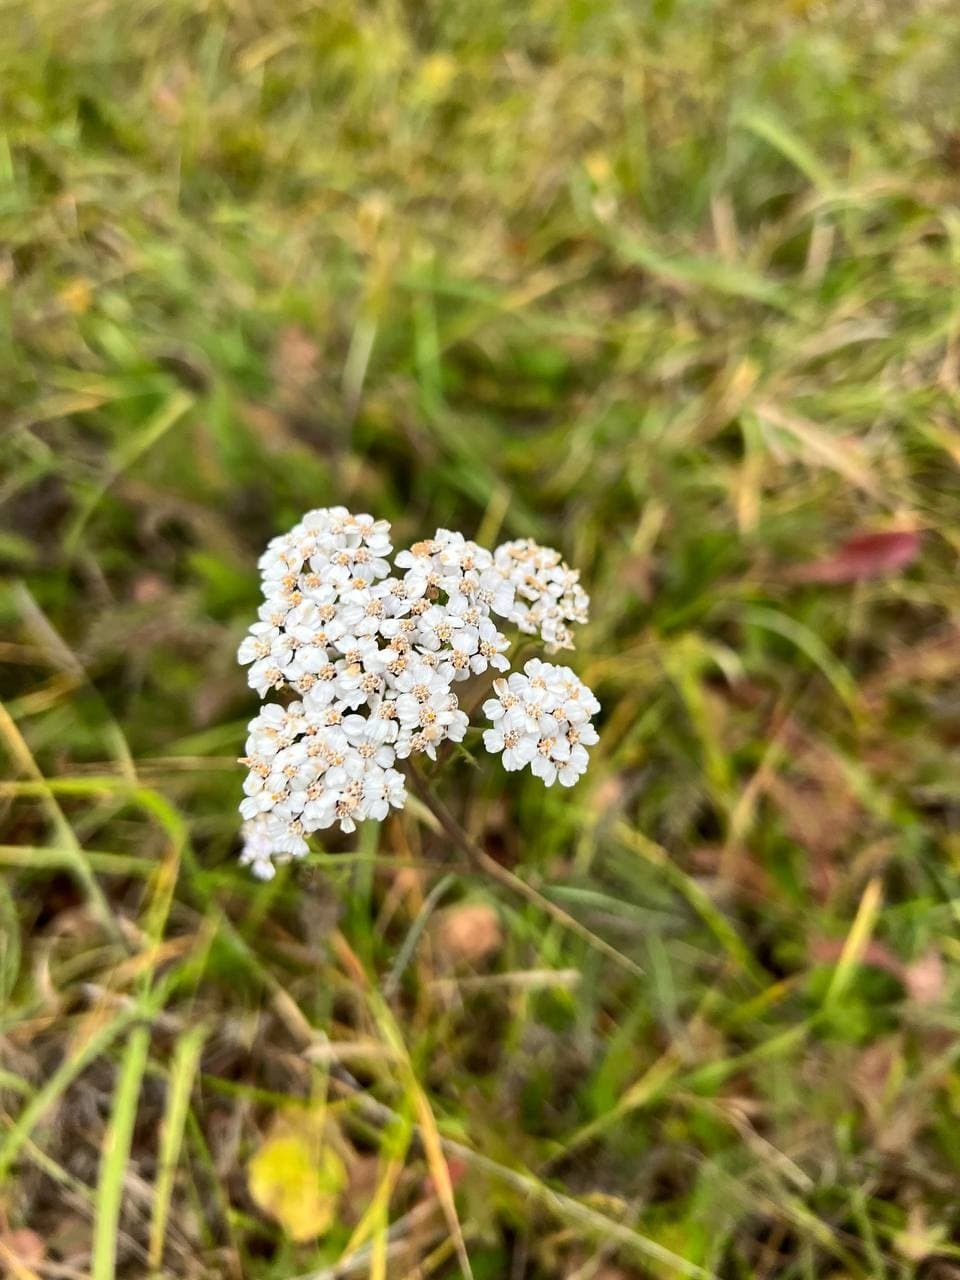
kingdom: Plantae
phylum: Tracheophyta
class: Magnoliopsida
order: Asterales
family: Asteraceae
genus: Achillea
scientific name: Achillea millefolium
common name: Yarrow
